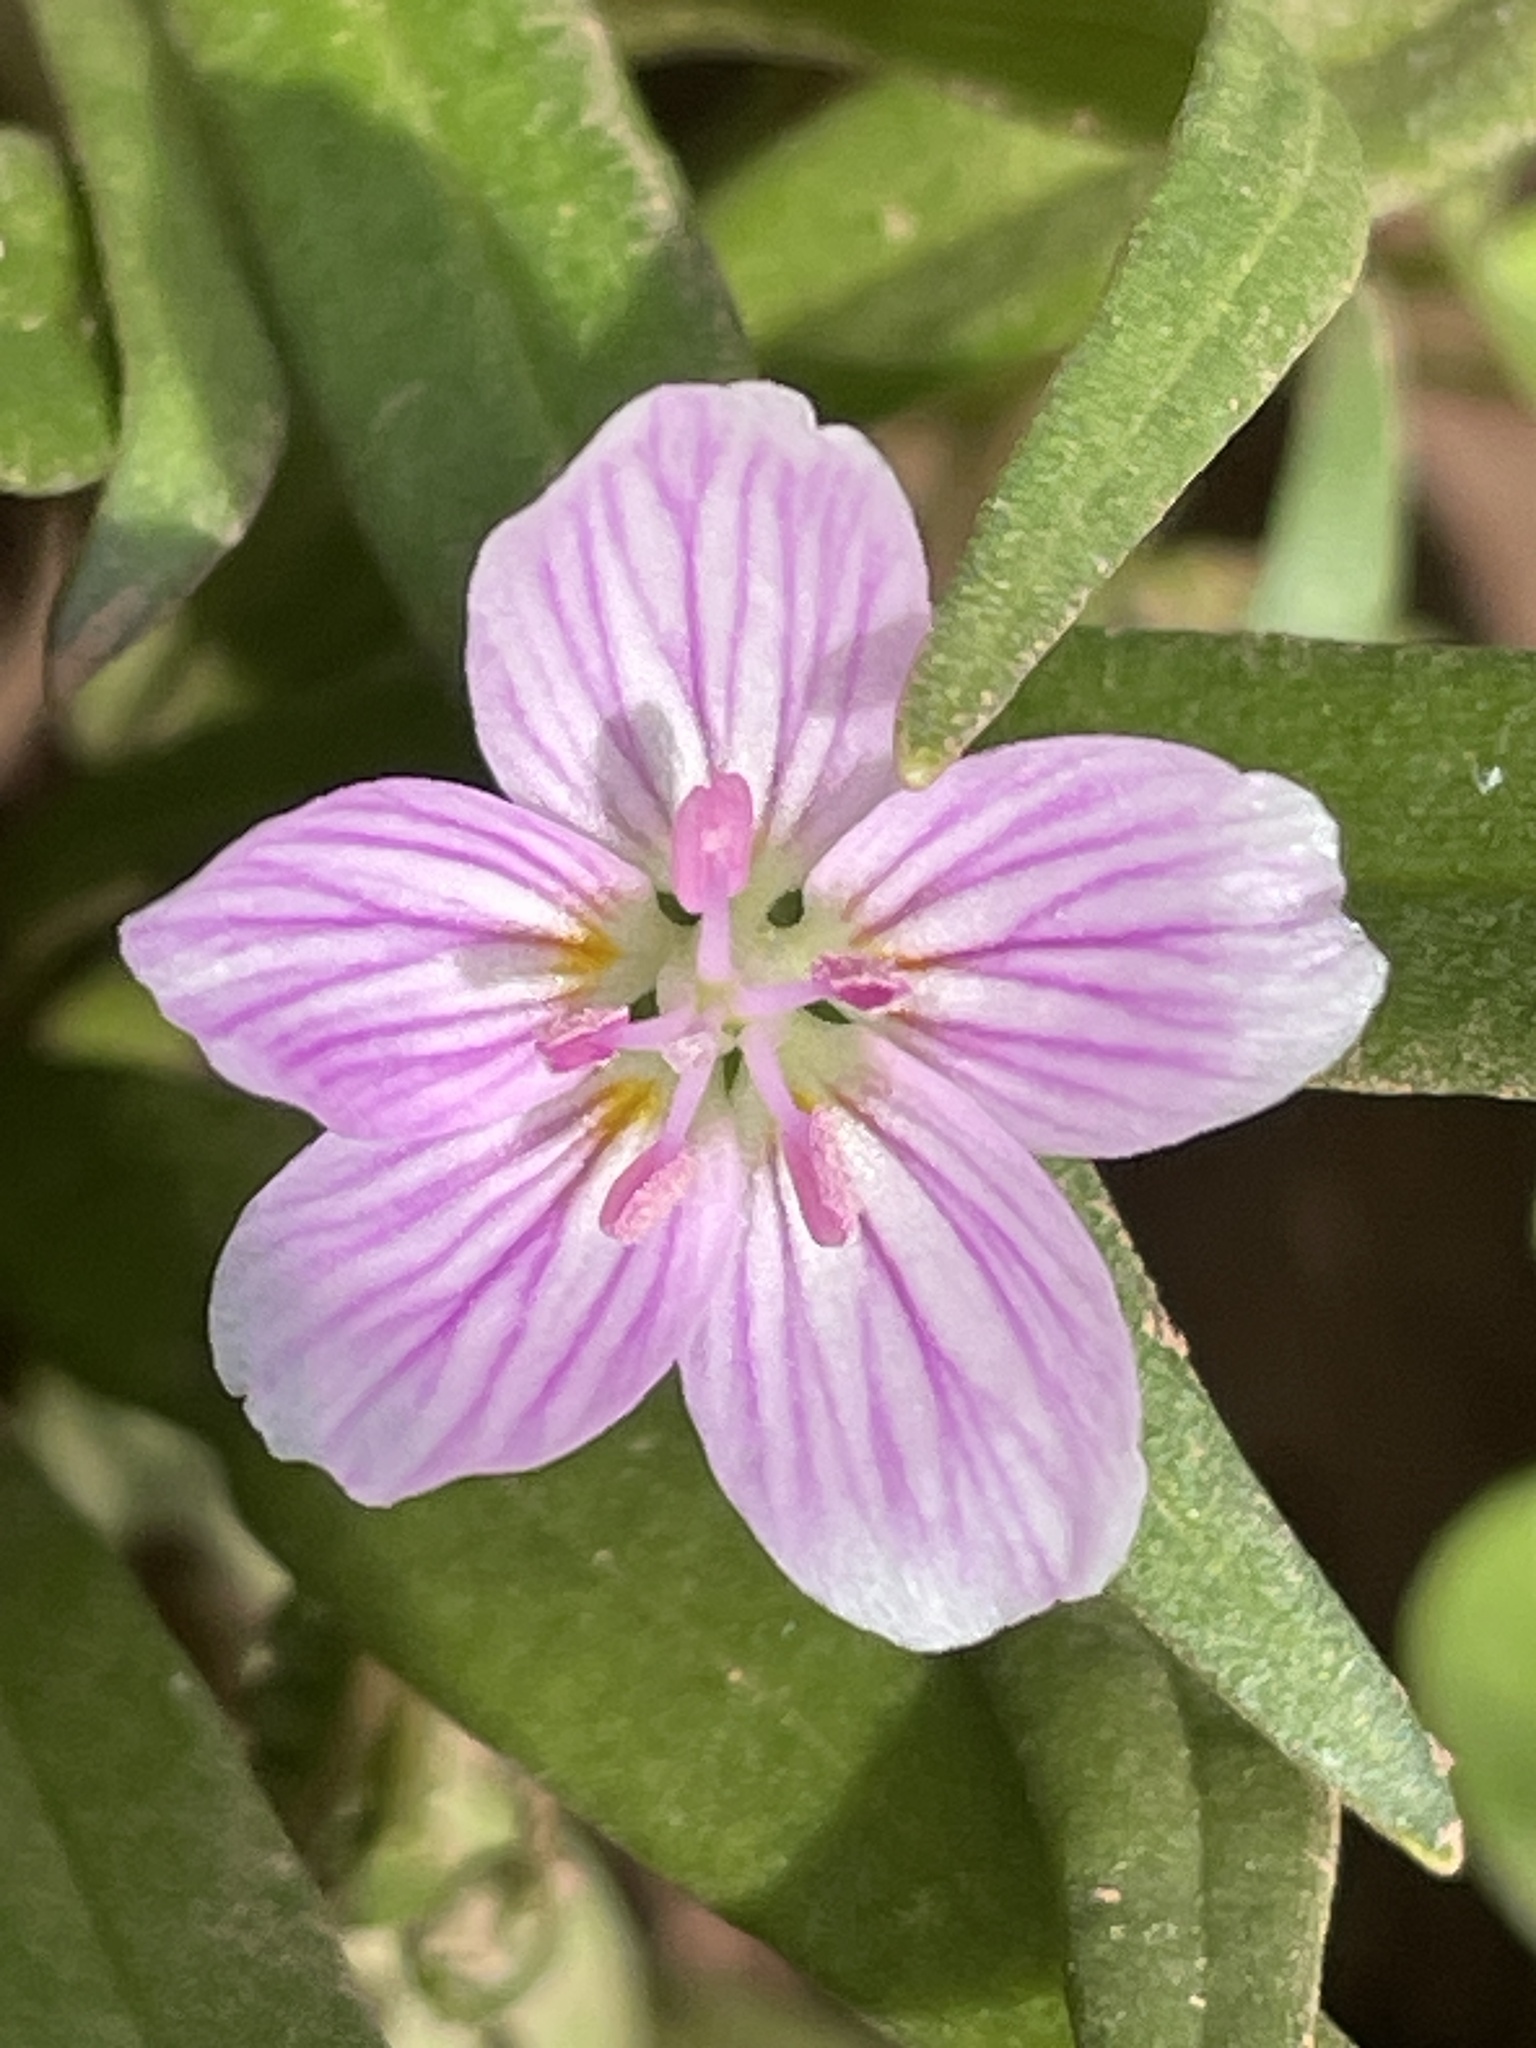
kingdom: Plantae
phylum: Tracheophyta
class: Magnoliopsida
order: Caryophyllales
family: Montiaceae
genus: Claytonia
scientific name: Claytonia virginica
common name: Virginia springbeauty
